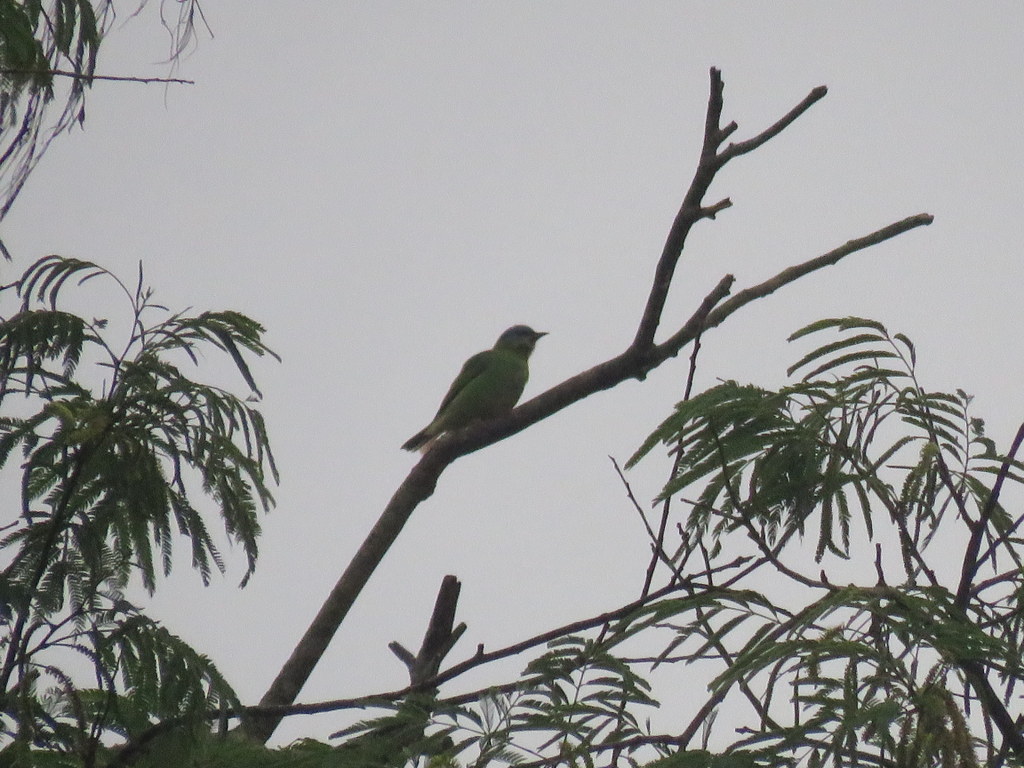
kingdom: Animalia
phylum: Chordata
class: Aves
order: Passeriformes
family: Thraupidae
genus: Dacnis
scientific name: Dacnis cayana
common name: Blue dacnis
